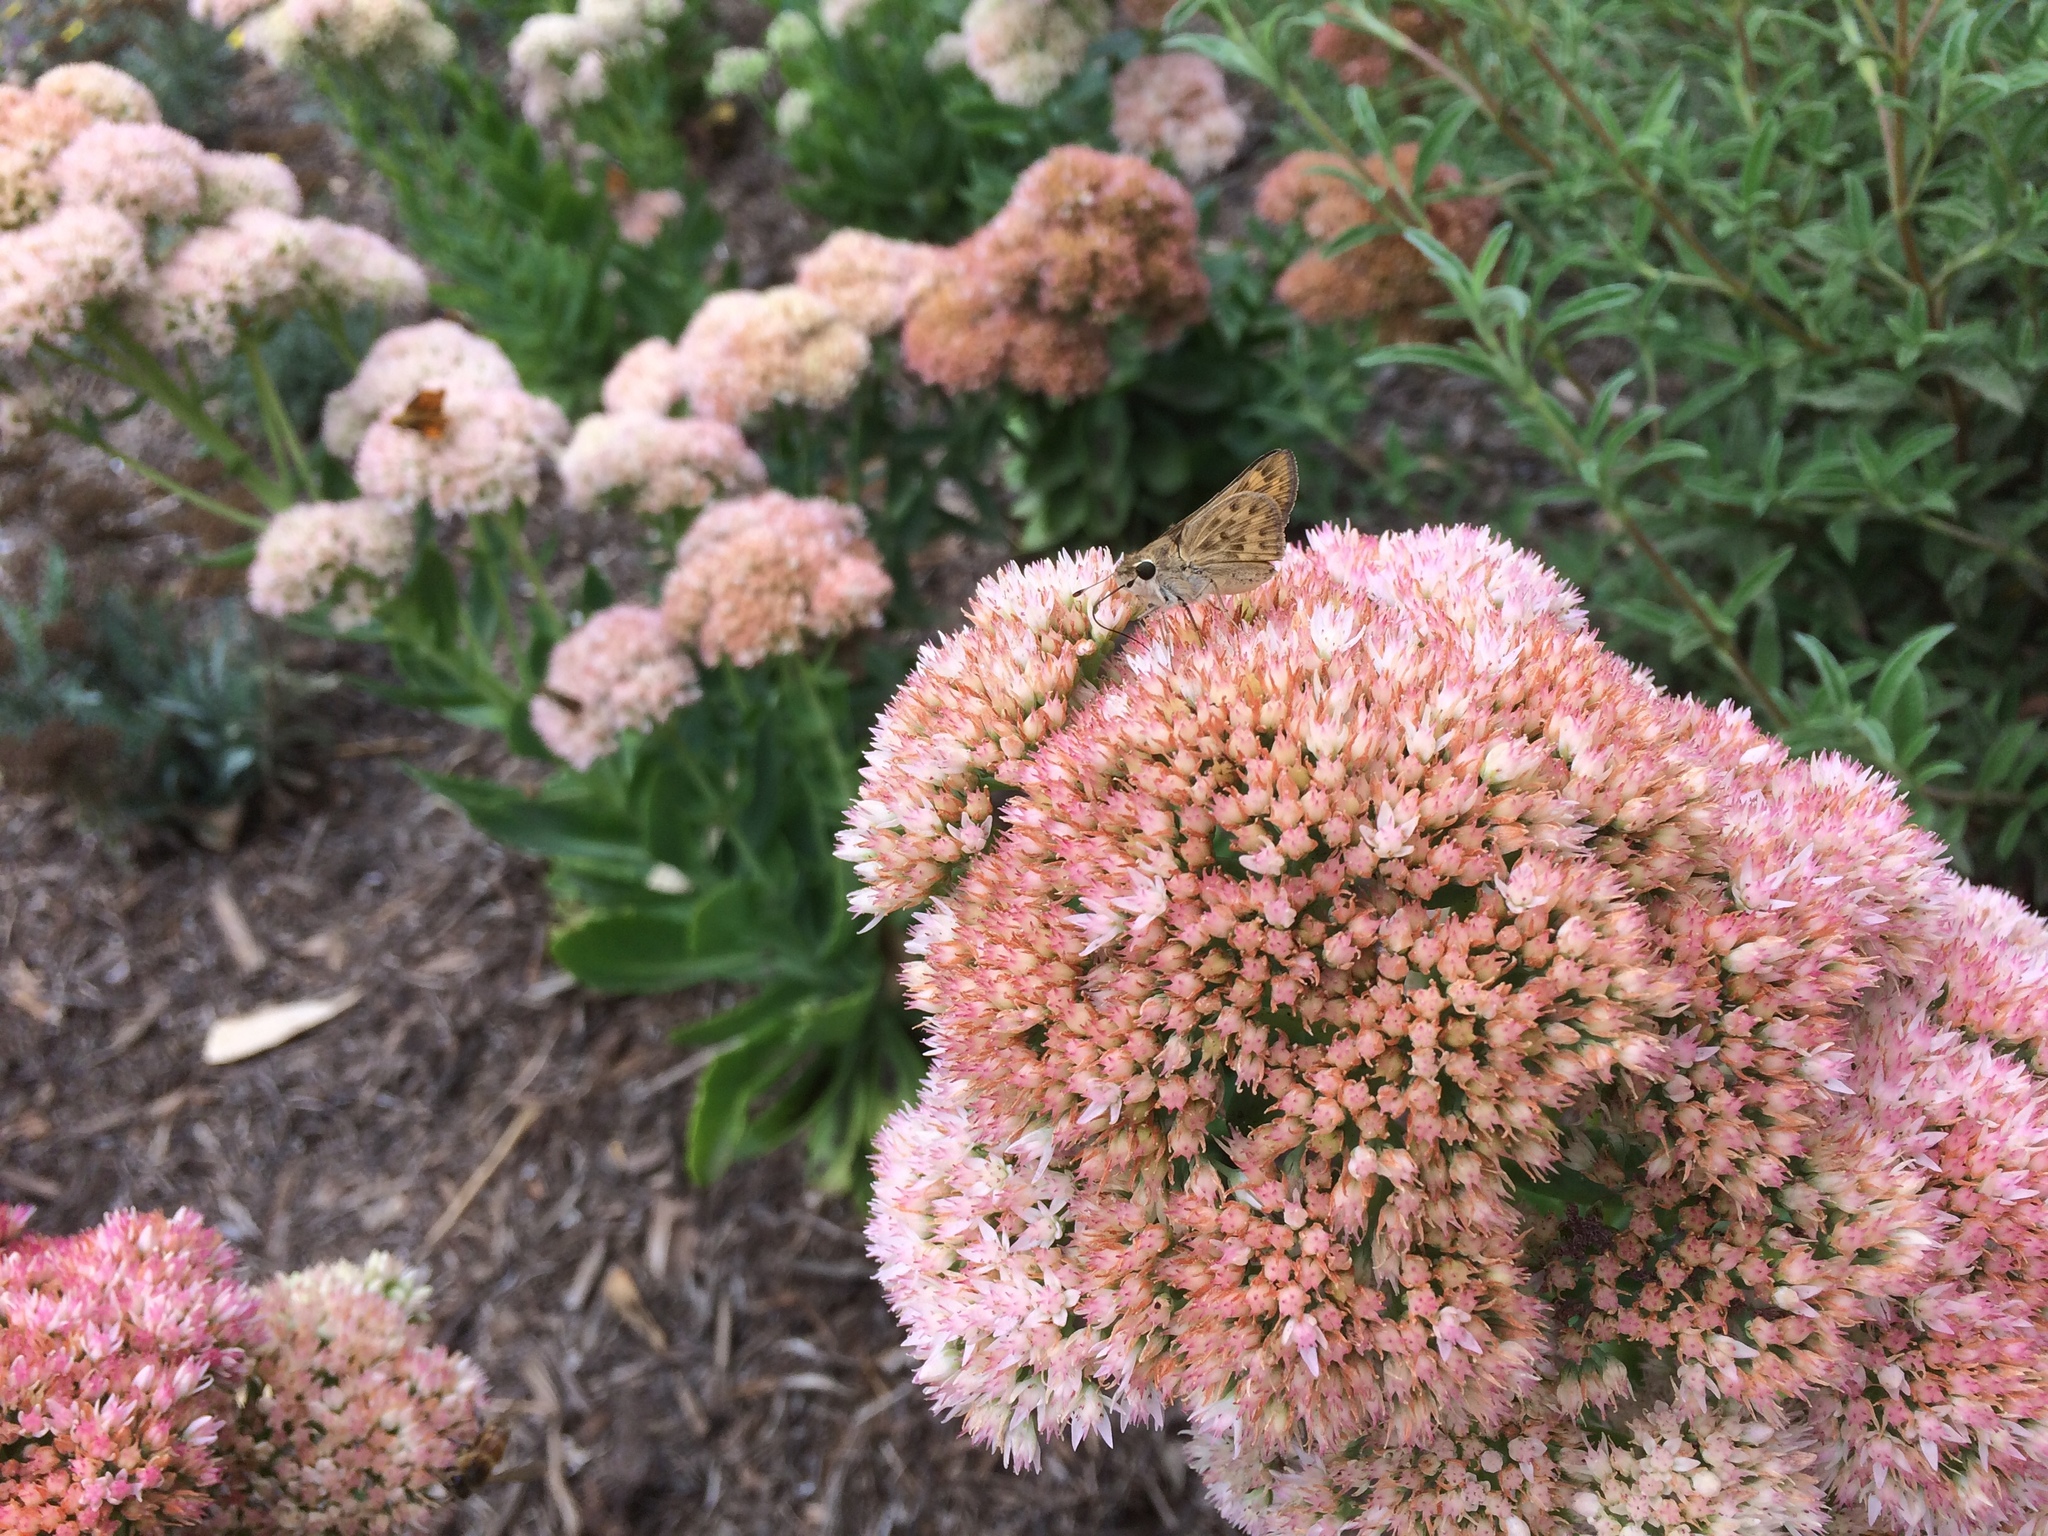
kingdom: Animalia
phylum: Arthropoda
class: Insecta
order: Lepidoptera
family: Hesperiidae
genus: Hylephila
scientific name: Hylephila phyleus
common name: Fiery skipper
